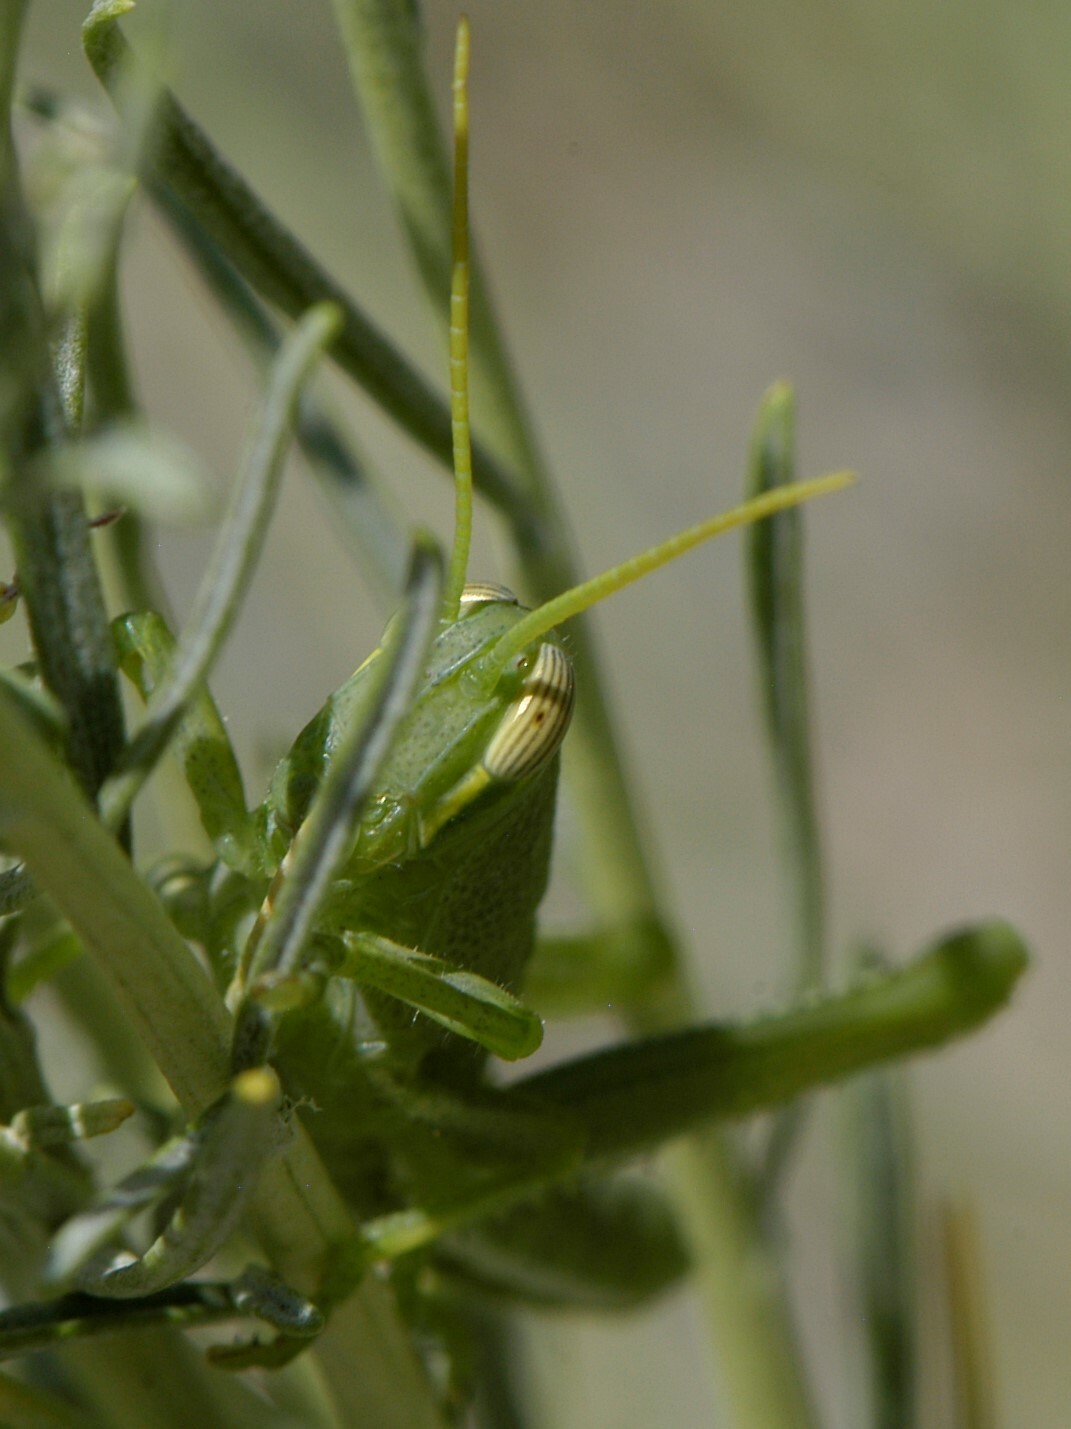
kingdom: Animalia
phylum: Arthropoda
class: Insecta
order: Orthoptera
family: Acrididae
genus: Schistocerca
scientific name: Schistocerca shoshone
